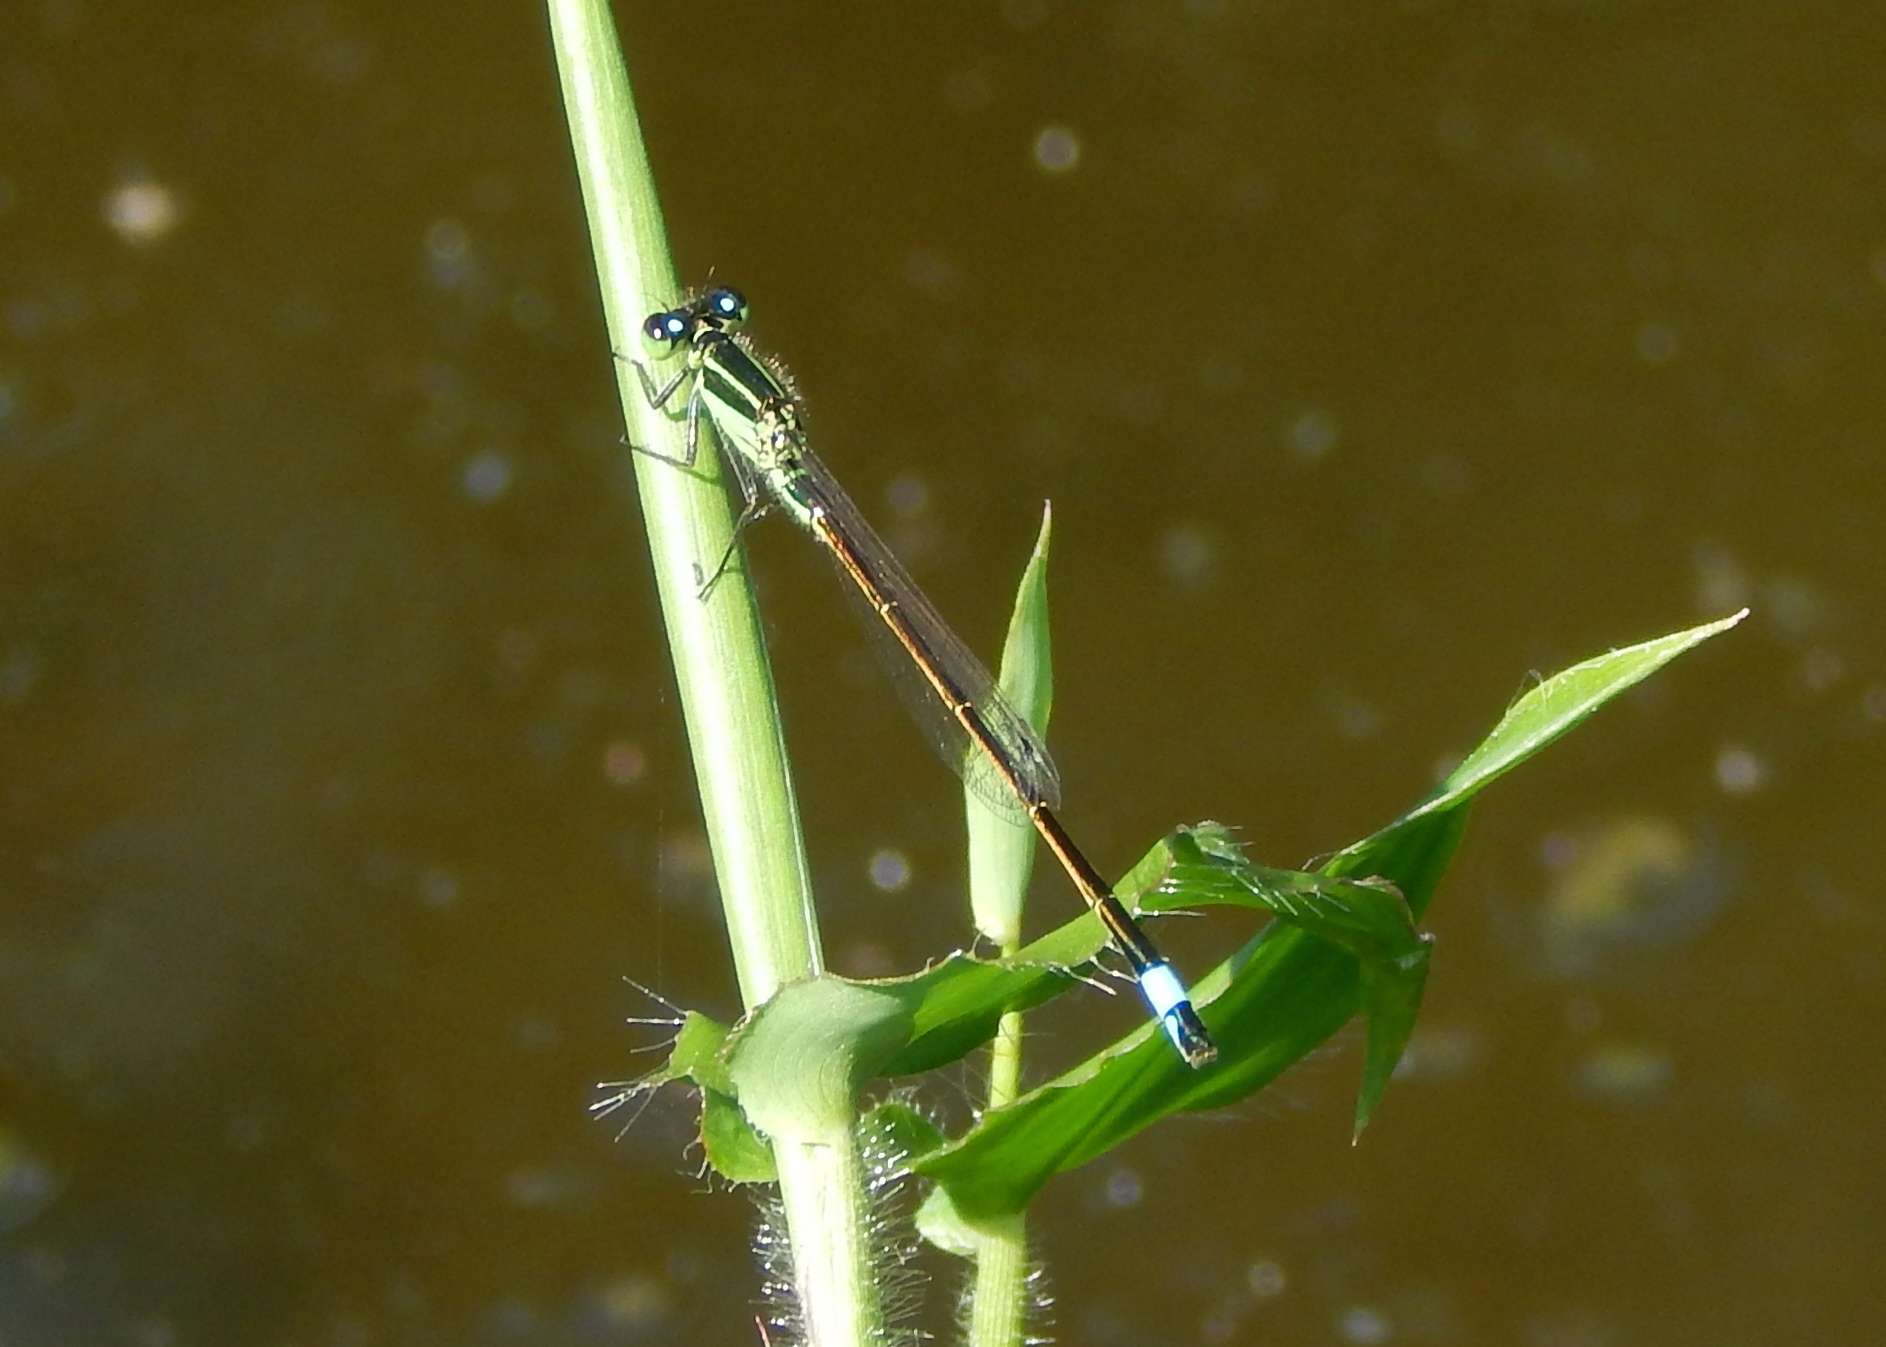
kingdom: Animalia
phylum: Arthropoda
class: Insecta
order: Odonata
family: Coenagrionidae
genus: Ischnura
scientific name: Ischnura ramburii
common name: Rambur's forktail
